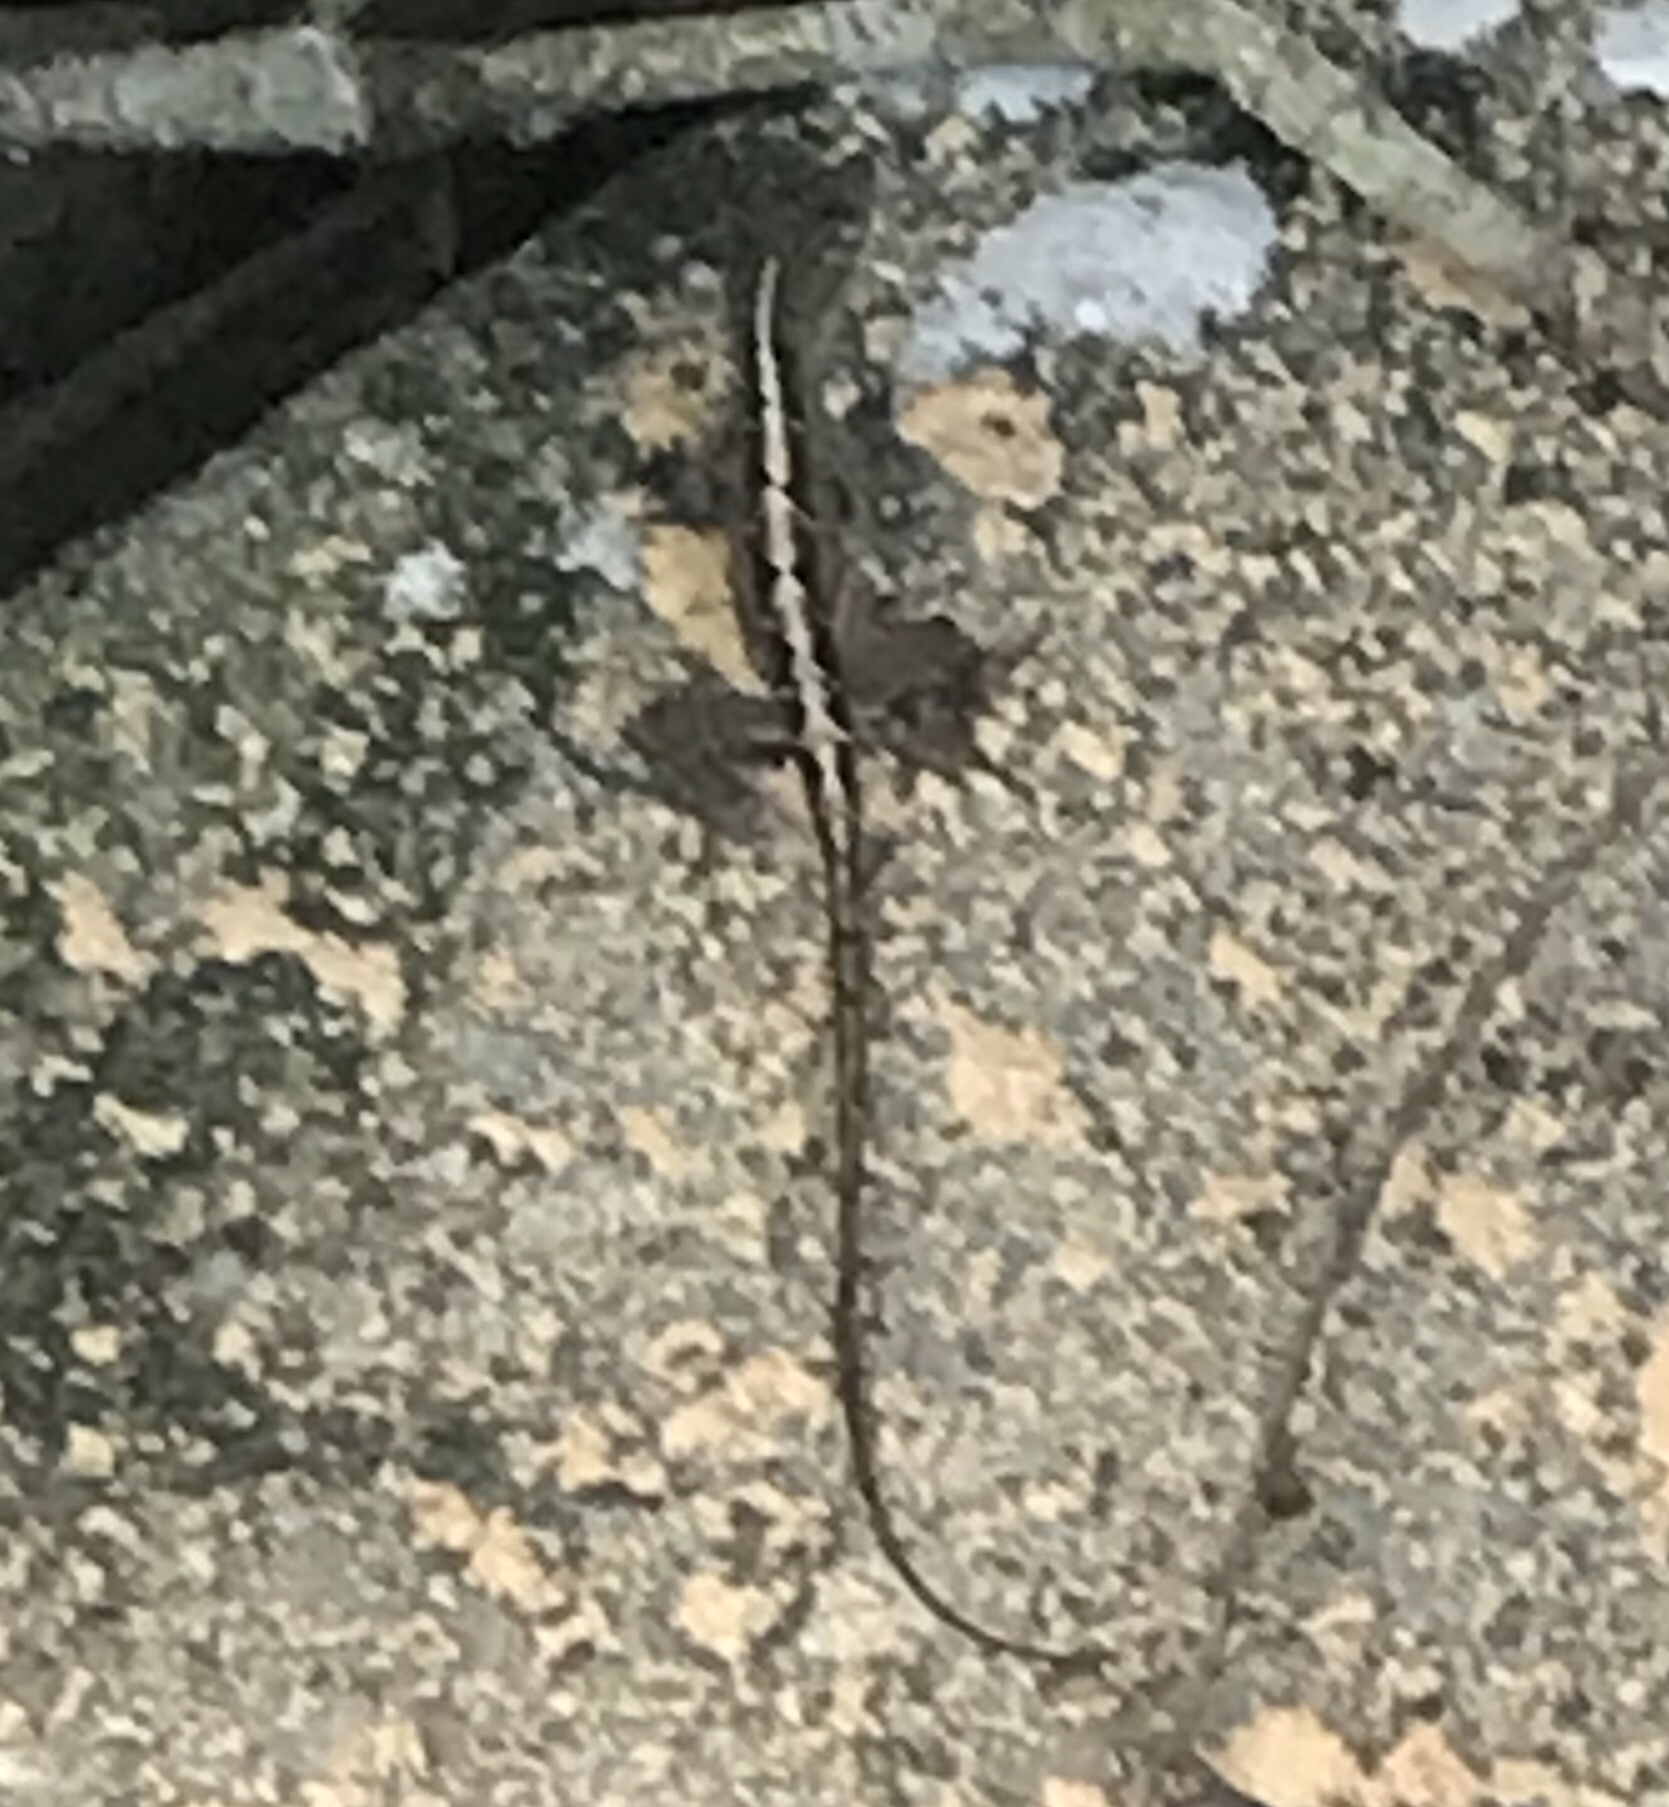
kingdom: Animalia
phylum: Chordata
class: Squamata
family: Dactyloidae
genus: Anolis
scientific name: Anolis sagrei
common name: Brown anole
